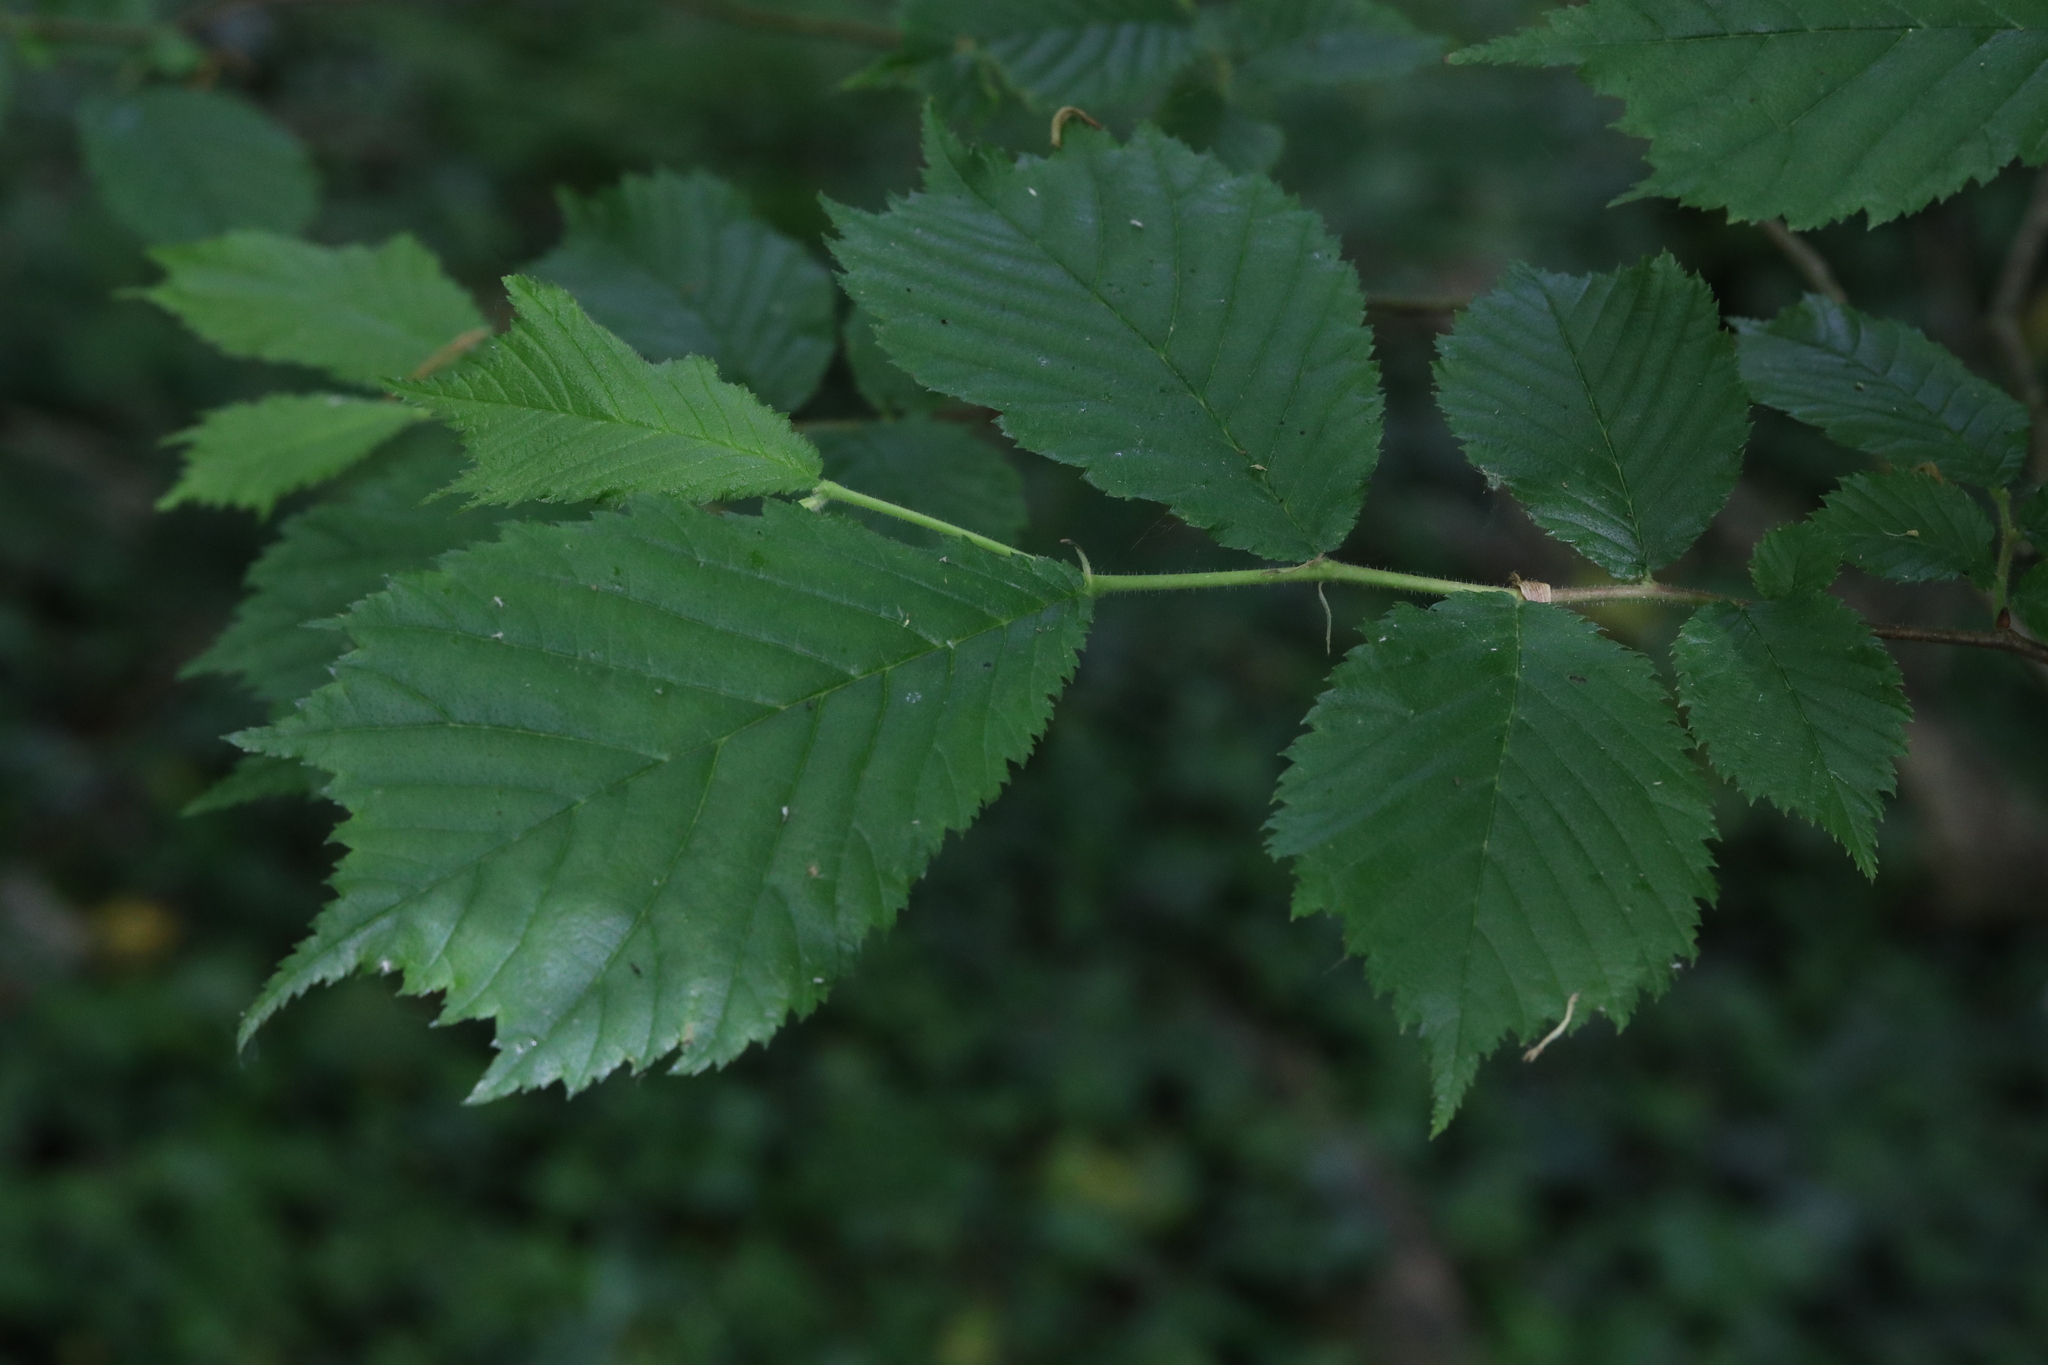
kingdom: Plantae
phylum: Tracheophyta
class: Magnoliopsida
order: Rosales
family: Ulmaceae
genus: Ulmus
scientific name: Ulmus glabra
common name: Wych elm
